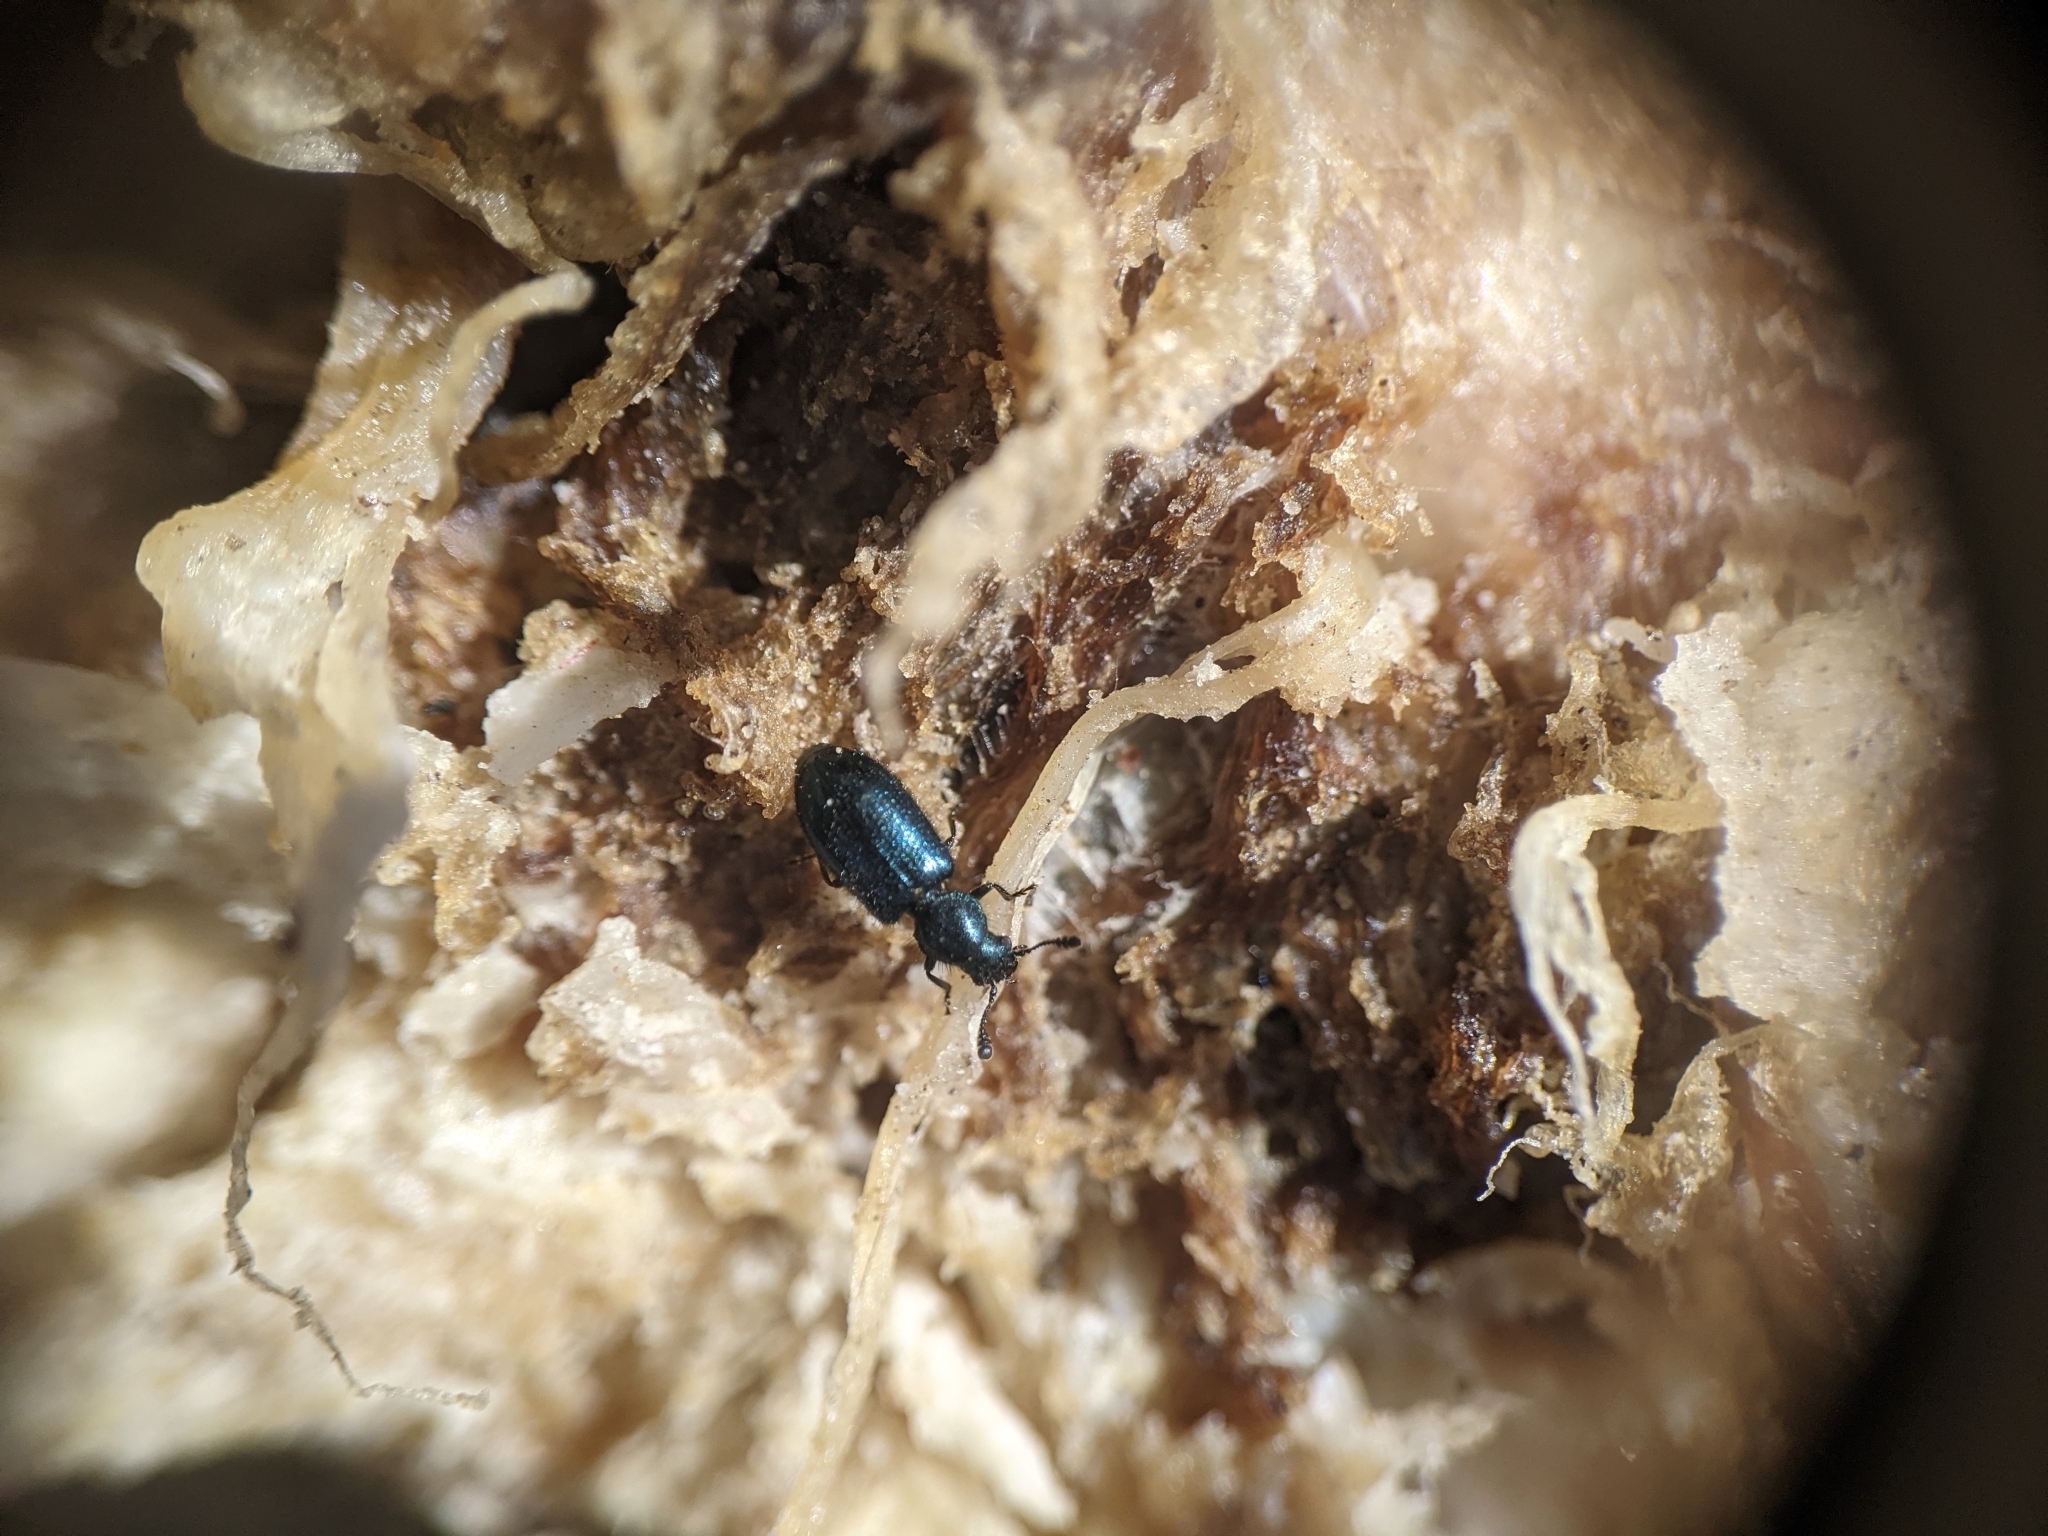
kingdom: Animalia
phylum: Arthropoda
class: Insecta
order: Coleoptera
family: Cleridae
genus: Necrobia
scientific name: Necrobia violacea
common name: Violet checkered beetle
